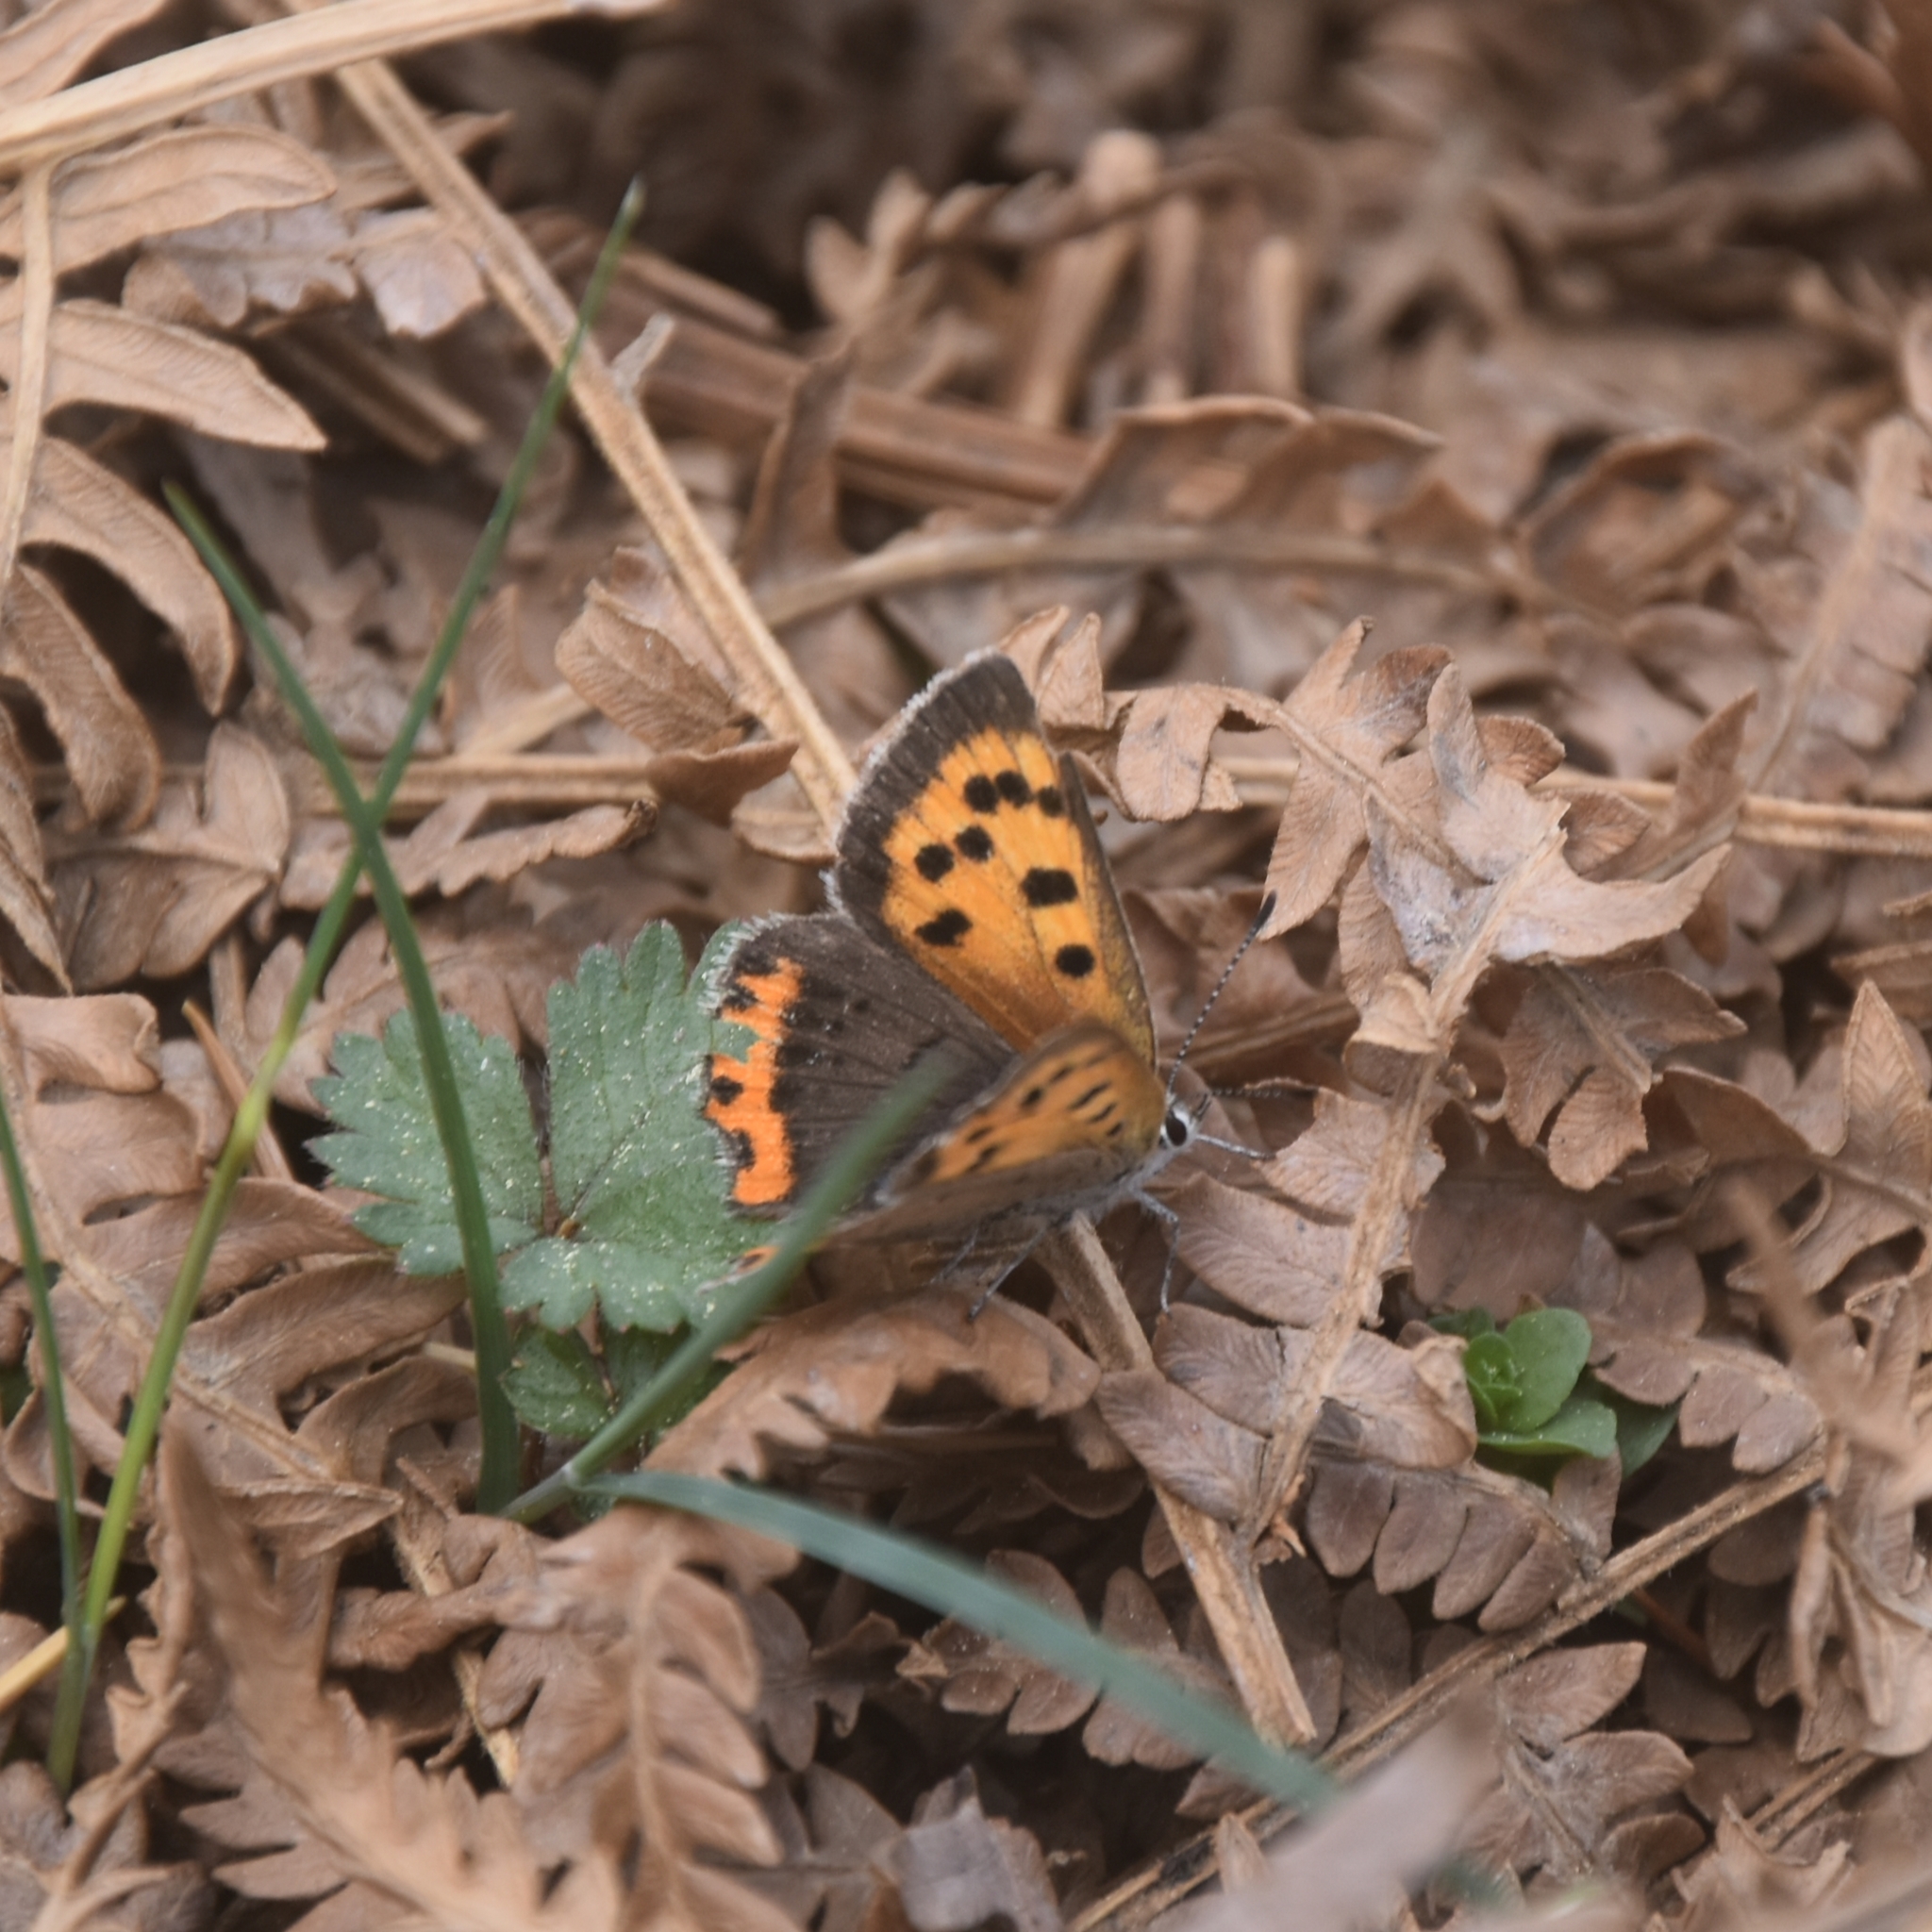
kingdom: Animalia
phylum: Arthropoda
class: Insecta
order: Lepidoptera
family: Lycaenidae
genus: Lycaena
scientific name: Lycaena phlaeas
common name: Small copper
